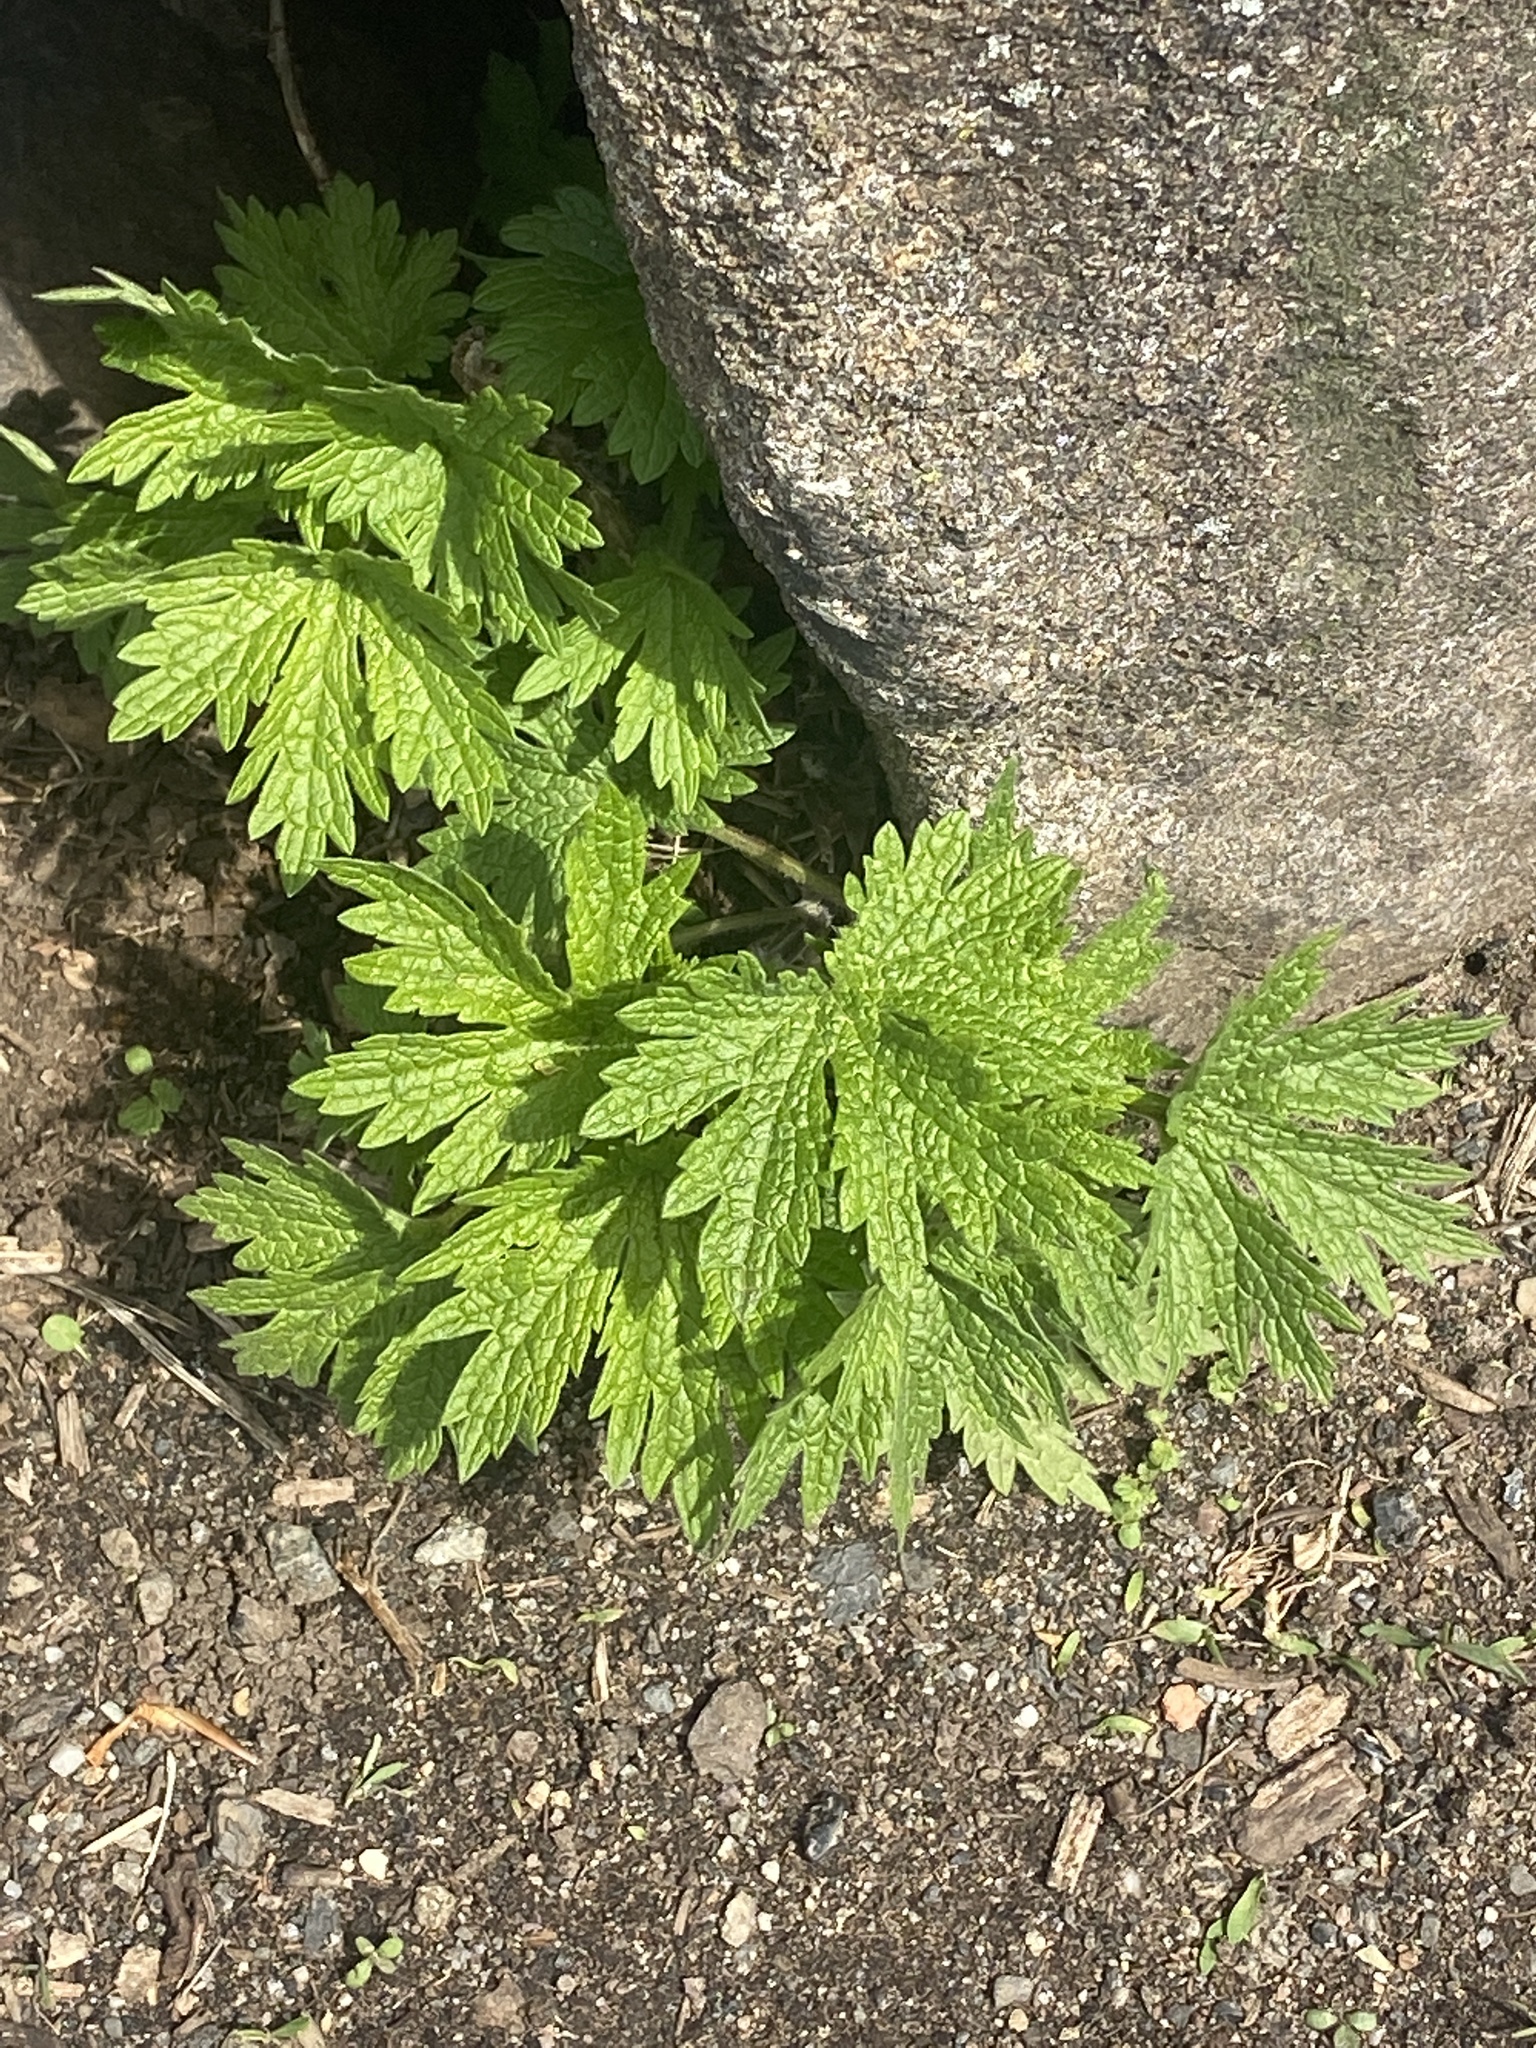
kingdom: Plantae
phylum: Tracheophyta
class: Magnoliopsida
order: Lamiales
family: Lamiaceae
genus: Leonurus
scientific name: Leonurus cardiaca
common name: Motherwort
